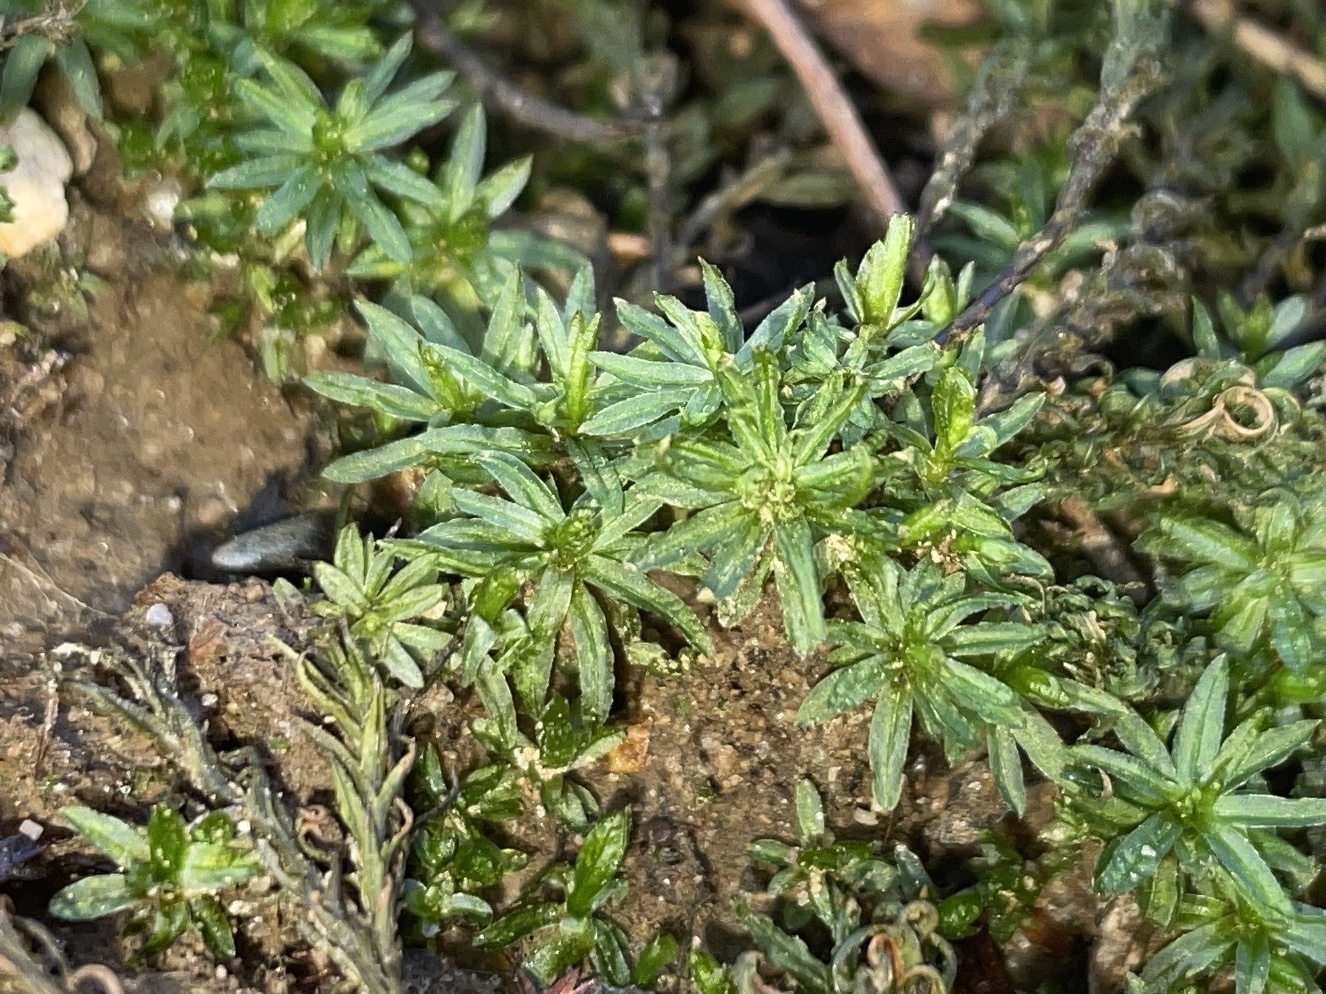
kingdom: Plantae
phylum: Bryophyta
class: Polytrichopsida
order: Polytrichales
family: Polytrichaceae
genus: Atrichum
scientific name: Atrichum crispum
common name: Fountain smoothcap
